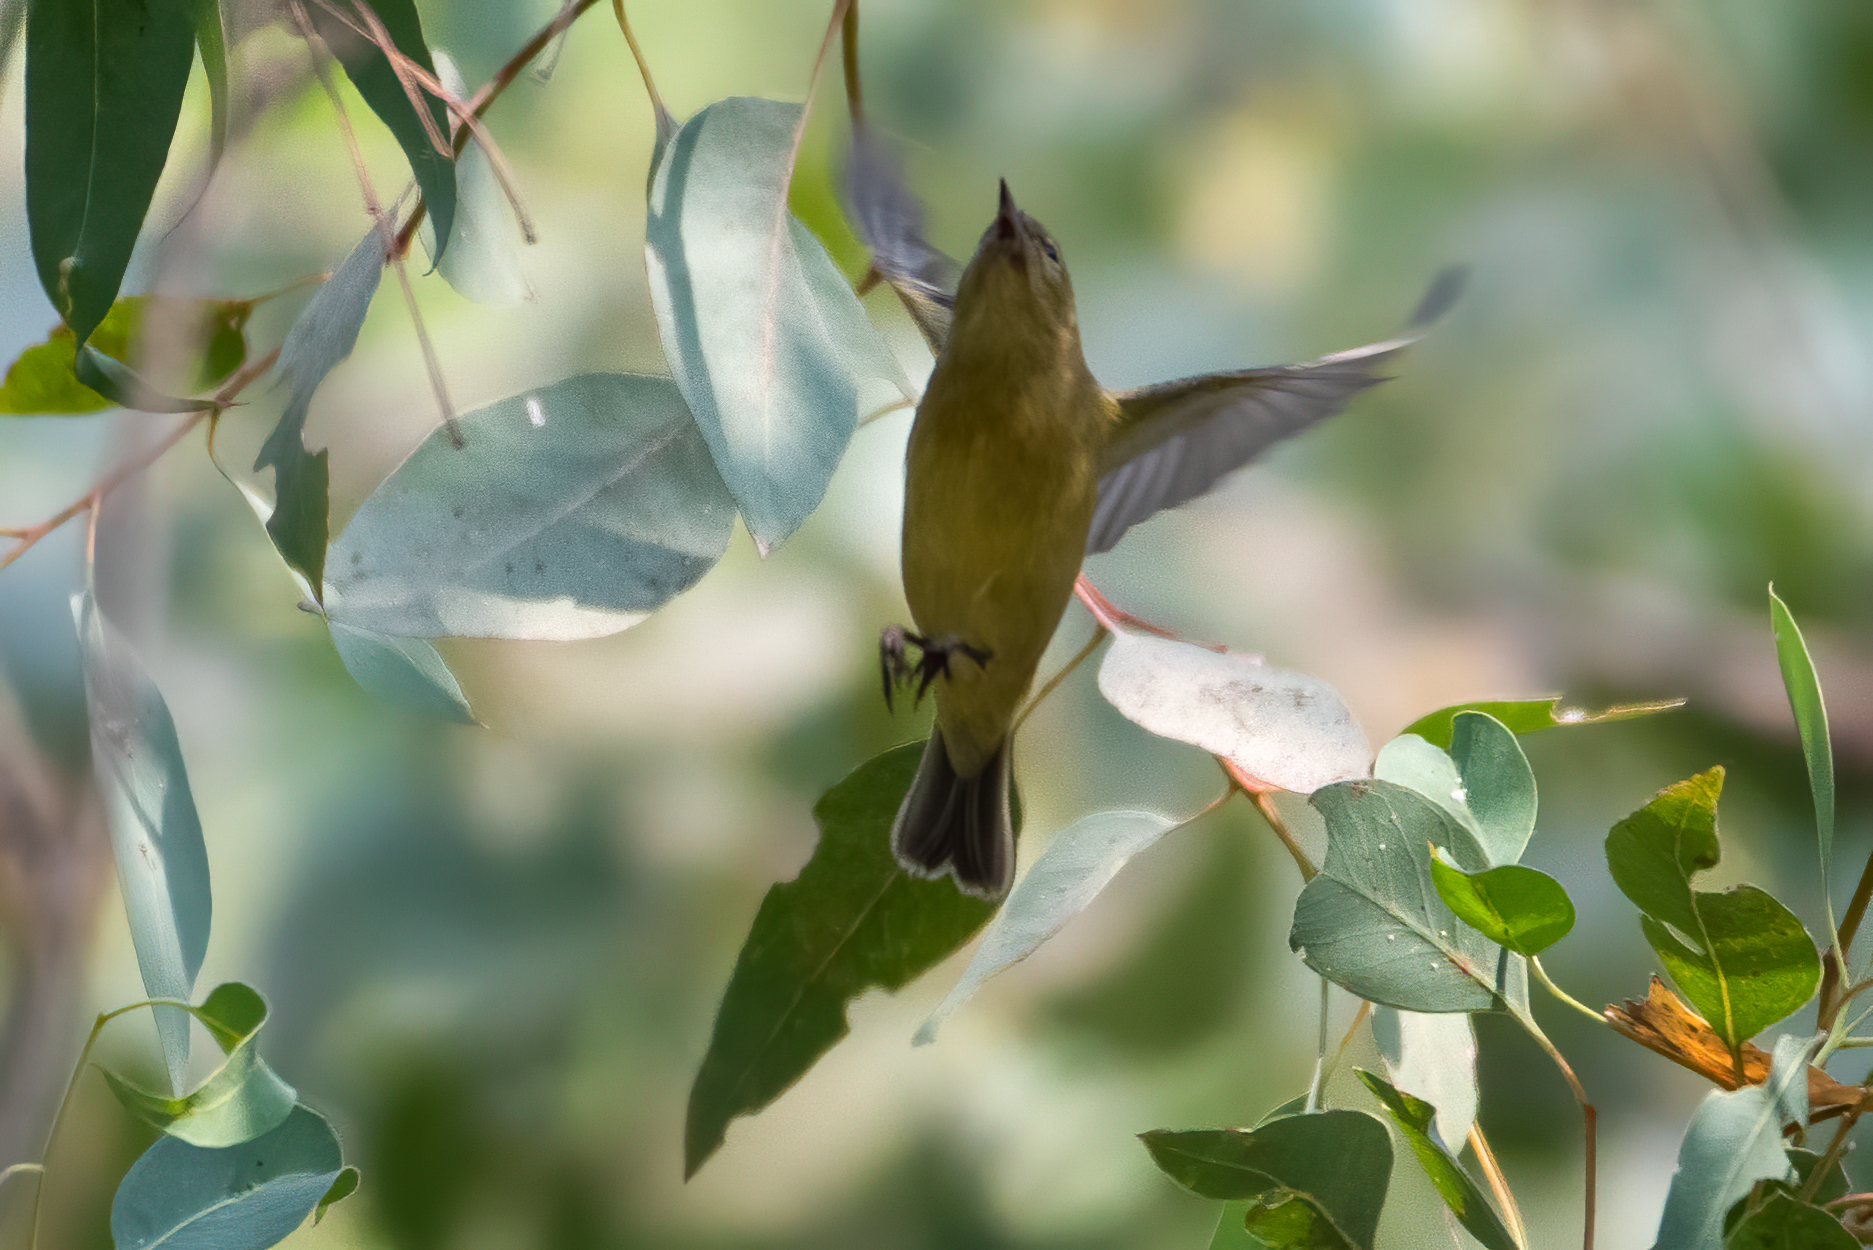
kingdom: Animalia
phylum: Chordata
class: Aves
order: Passeriformes
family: Parulidae
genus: Leiothlypis
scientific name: Leiothlypis celata
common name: Orange-crowned warbler
